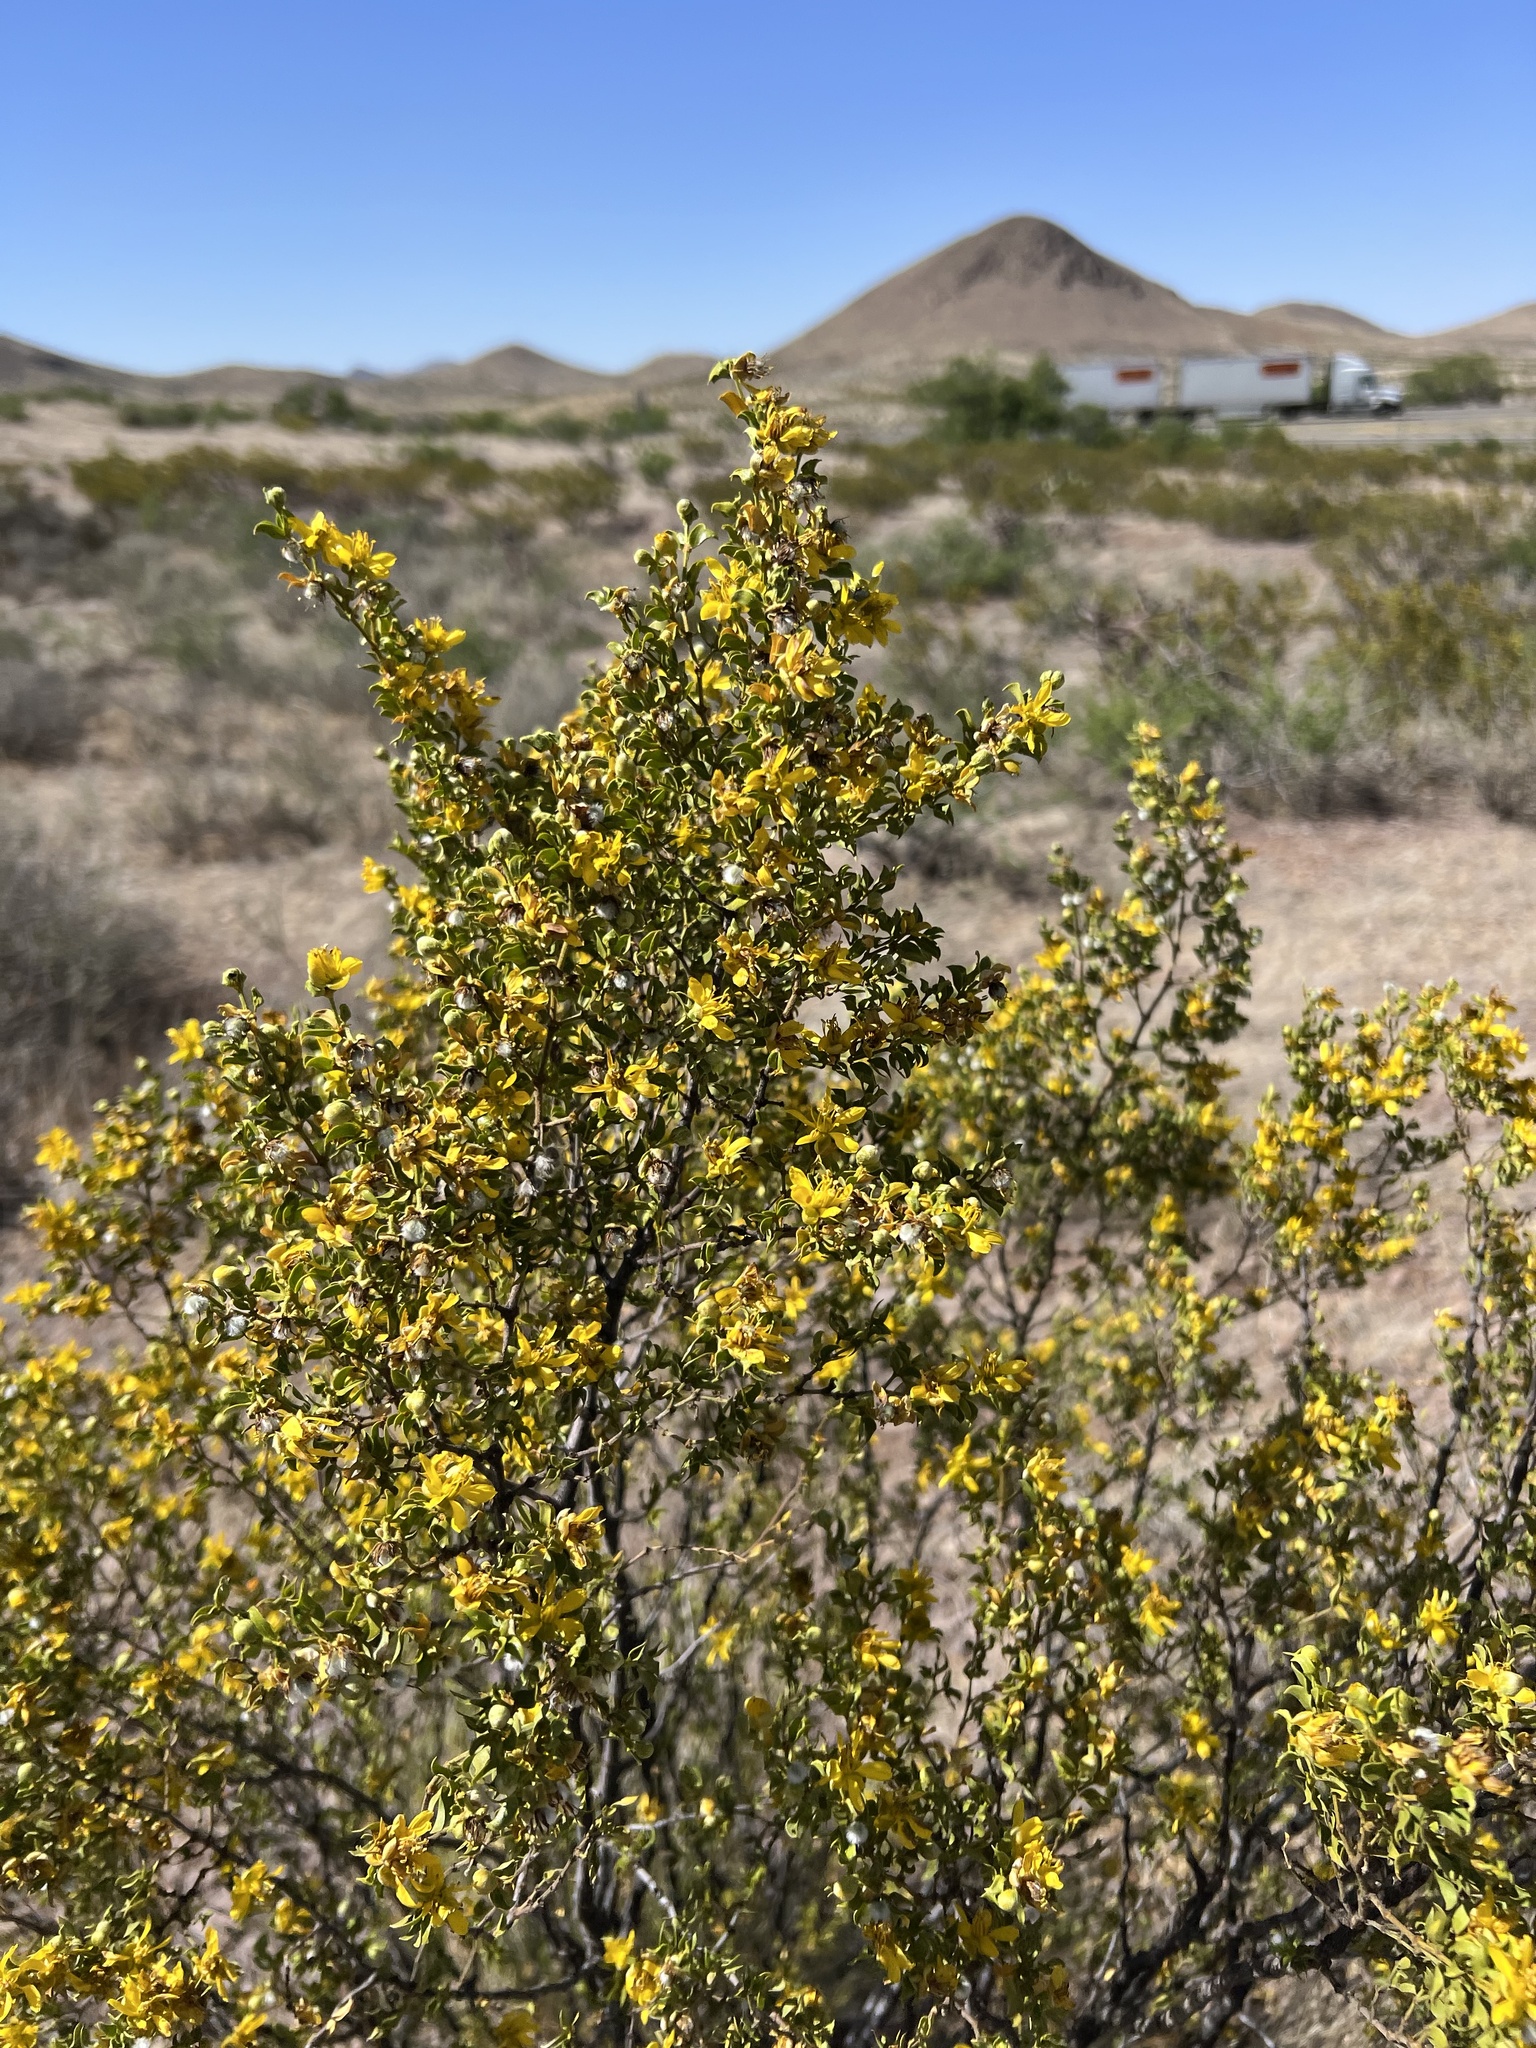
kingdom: Plantae
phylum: Tracheophyta
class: Magnoliopsida
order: Zygophyllales
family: Zygophyllaceae
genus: Larrea
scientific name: Larrea tridentata
